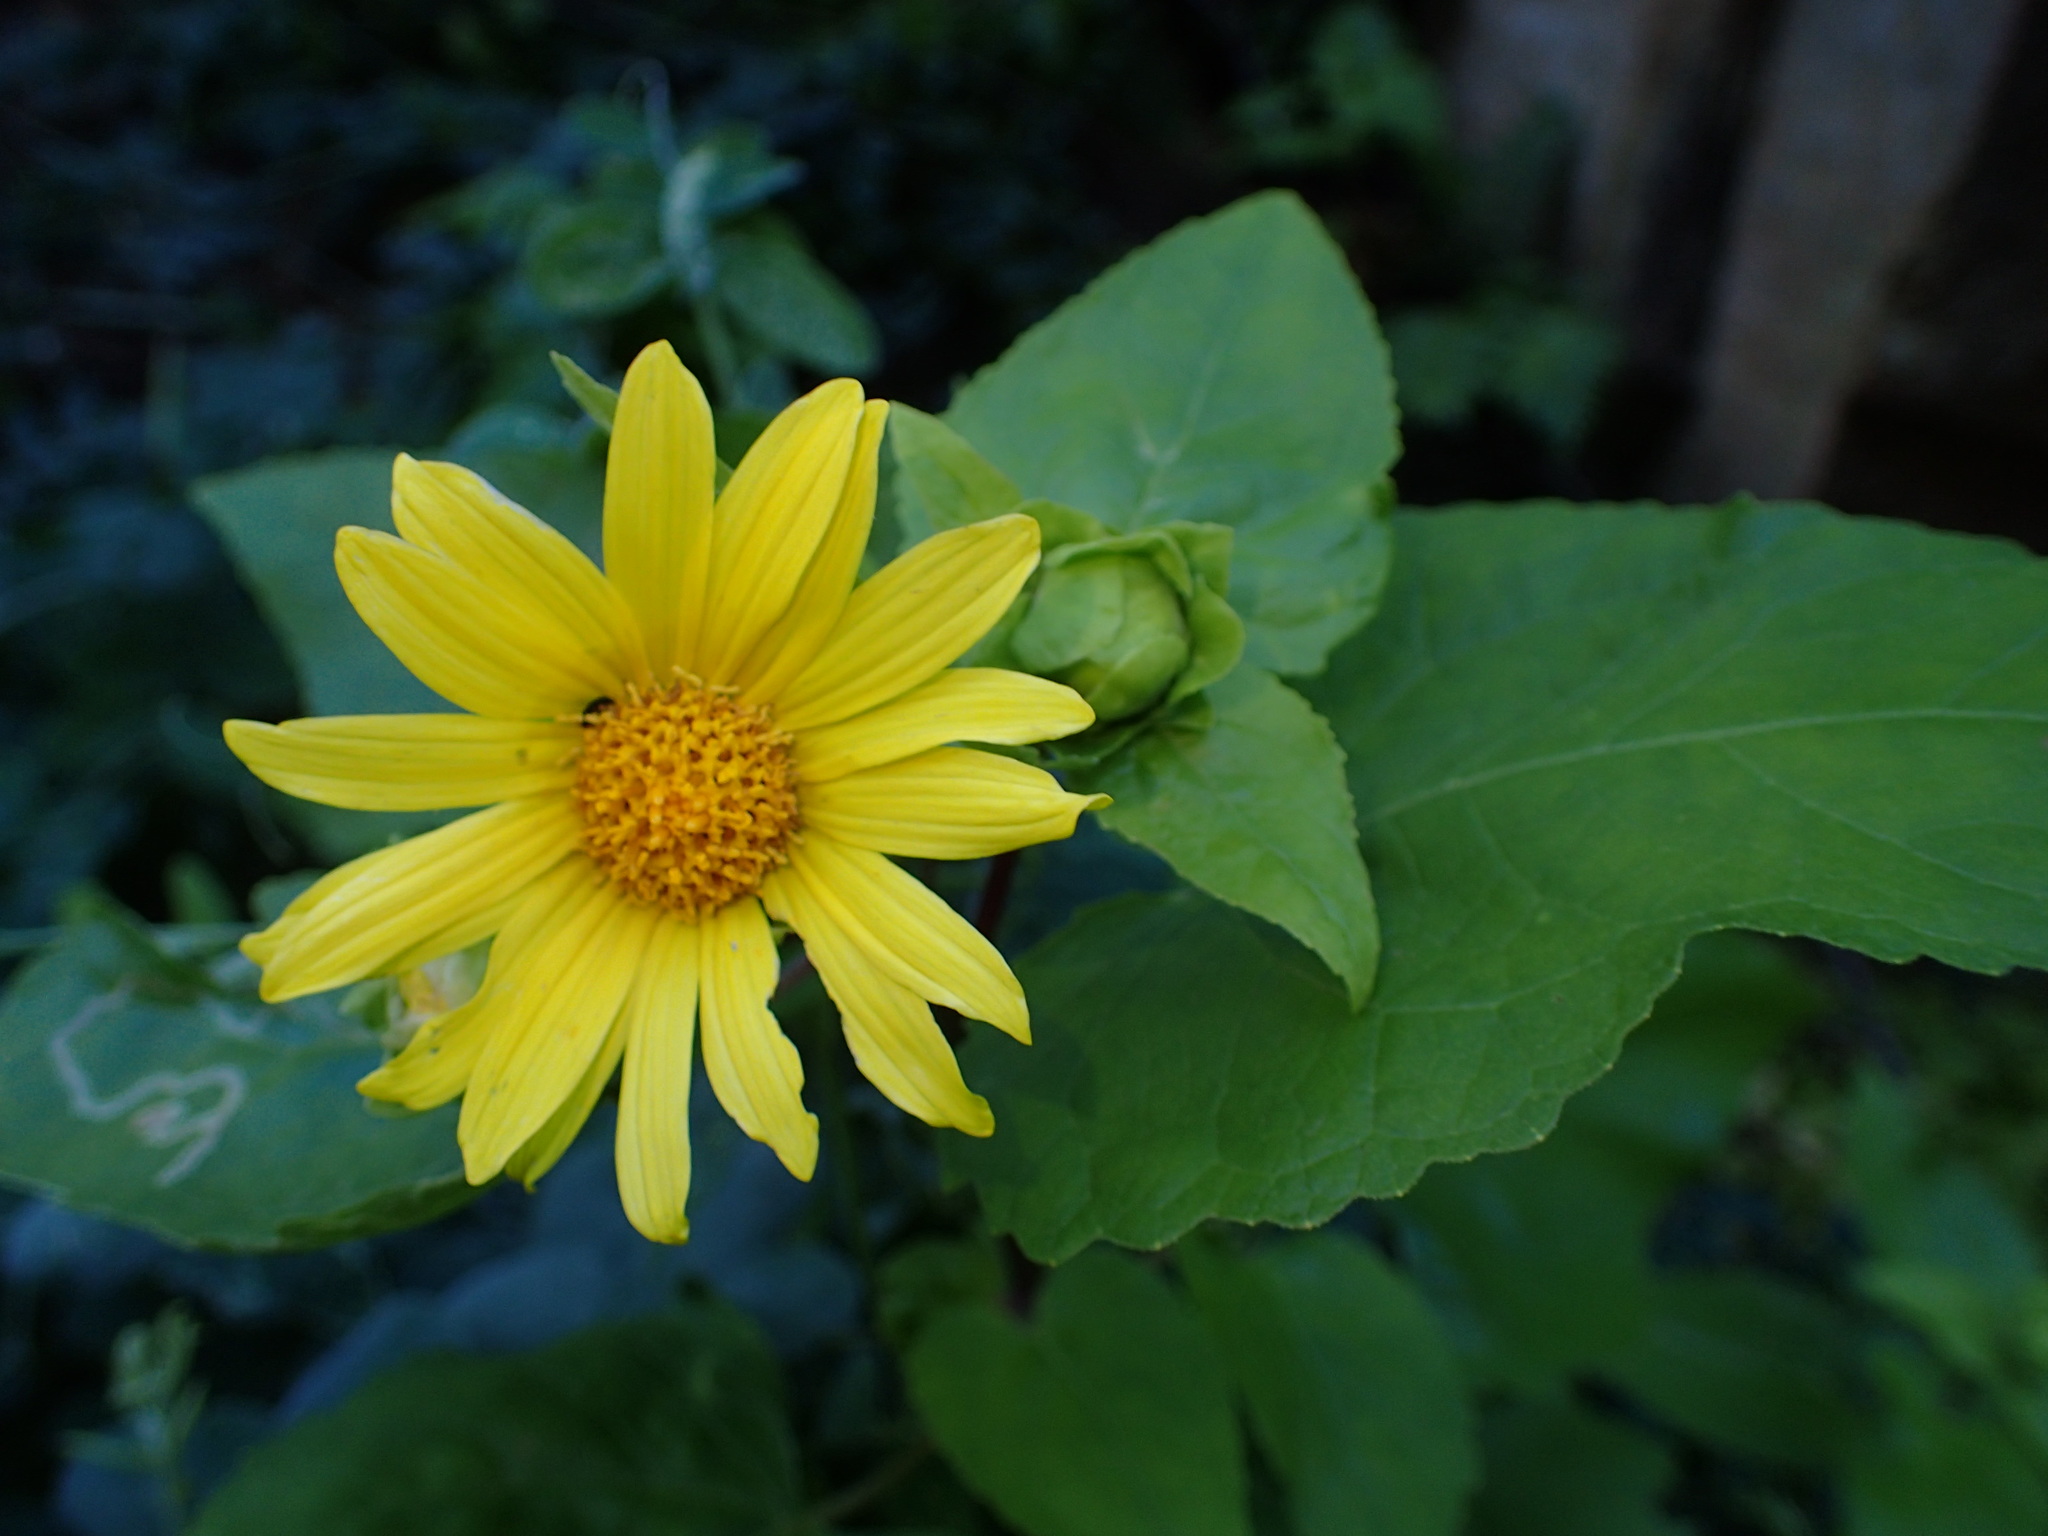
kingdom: Plantae
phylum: Tracheophyta
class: Magnoliopsida
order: Asterales
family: Asteraceae
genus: Venegasia
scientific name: Venegasia carpesioides
